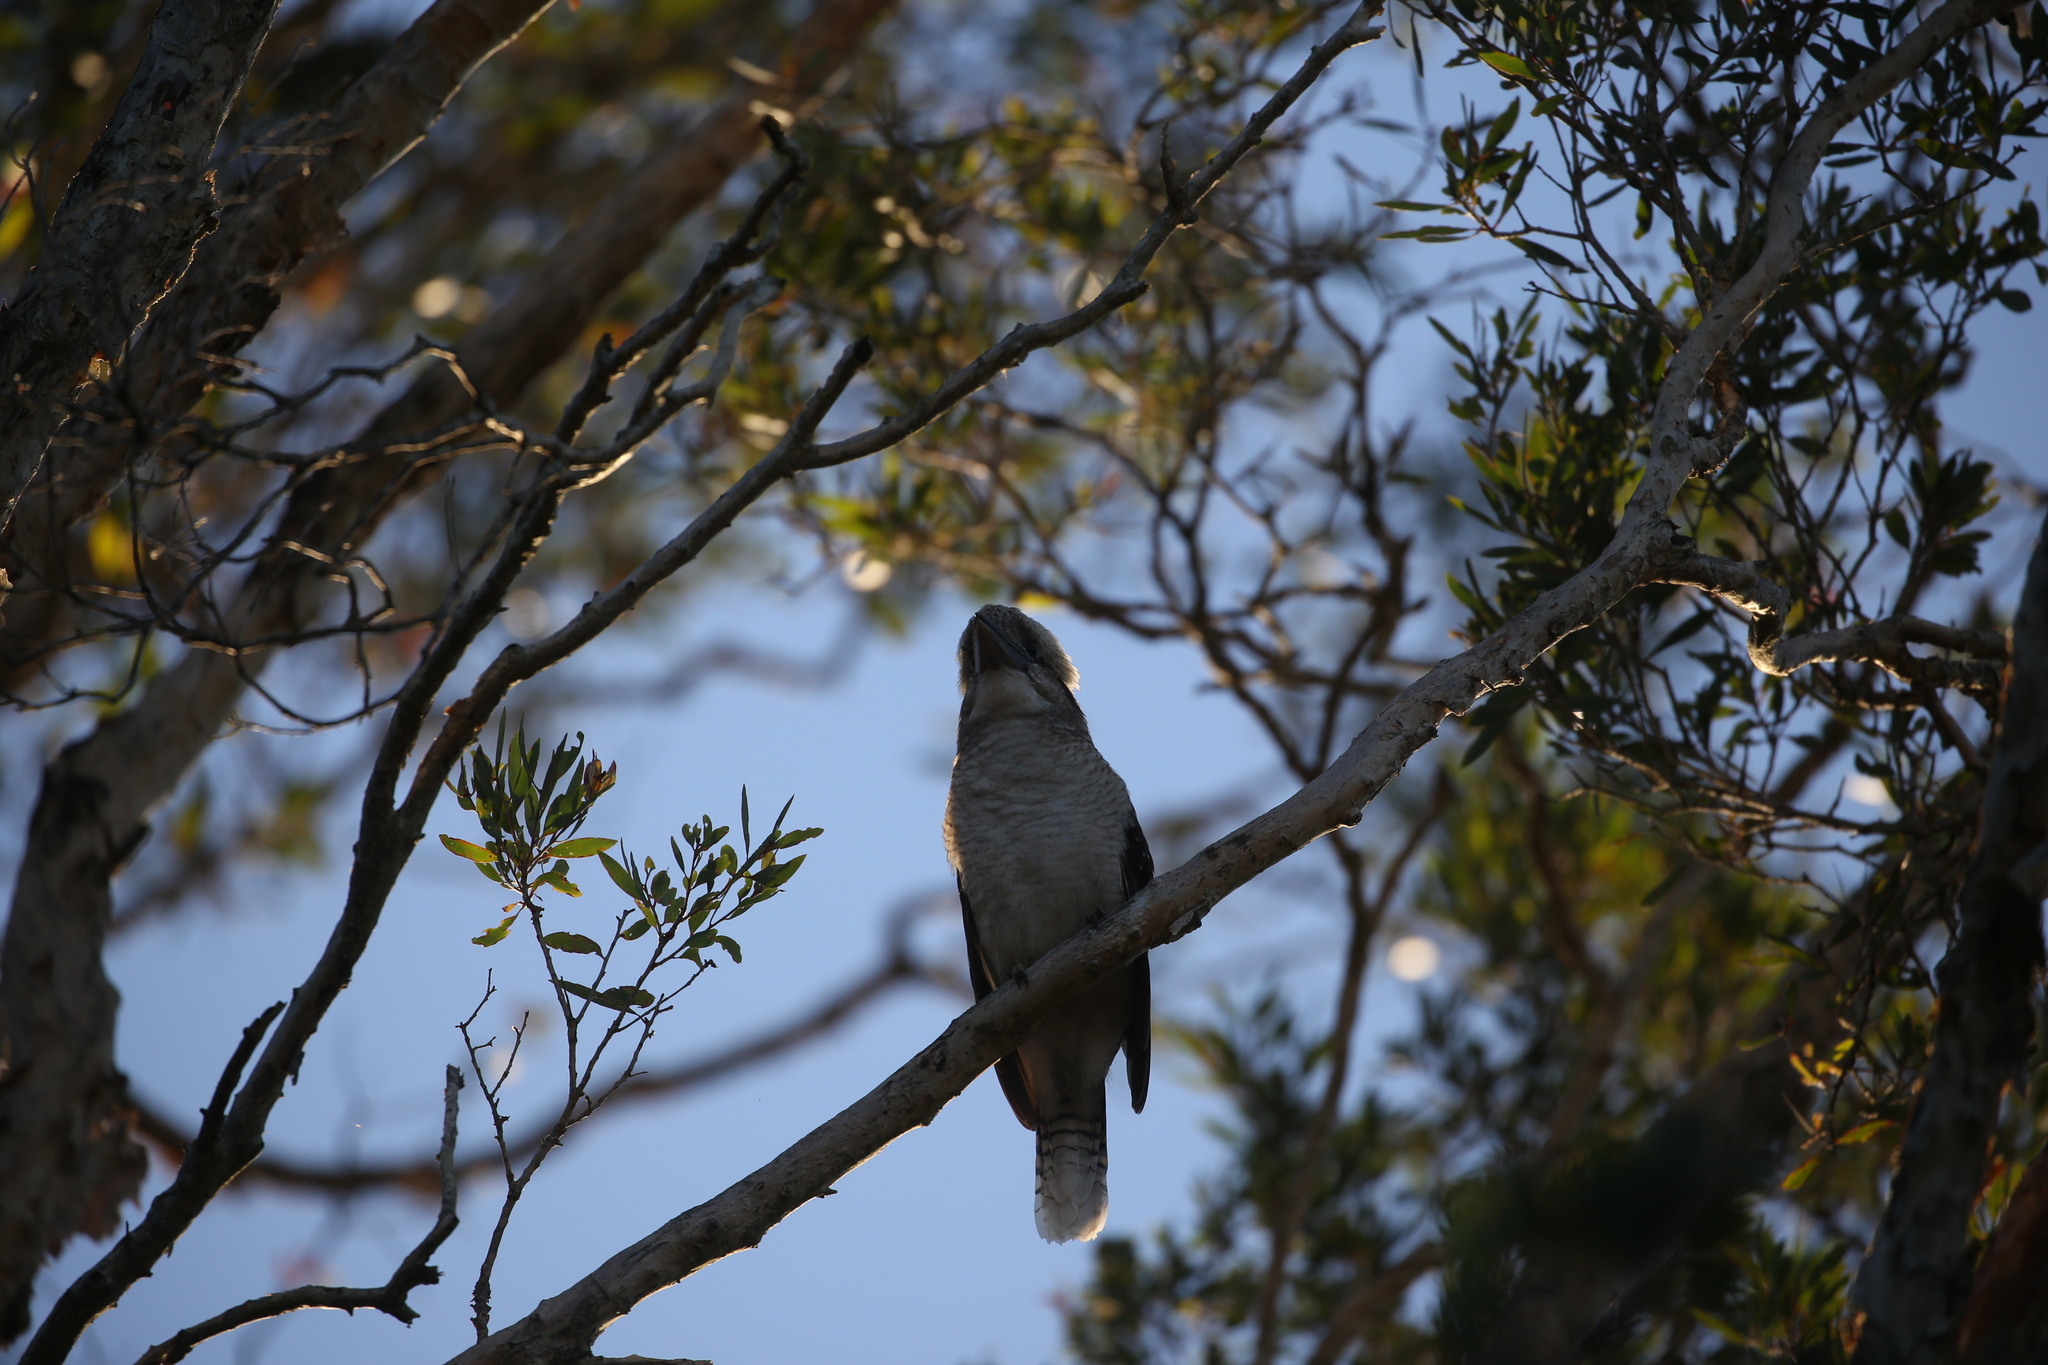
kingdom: Animalia
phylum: Chordata
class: Aves
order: Coraciiformes
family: Alcedinidae
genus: Dacelo
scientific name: Dacelo novaeguineae
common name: Laughing kookaburra
